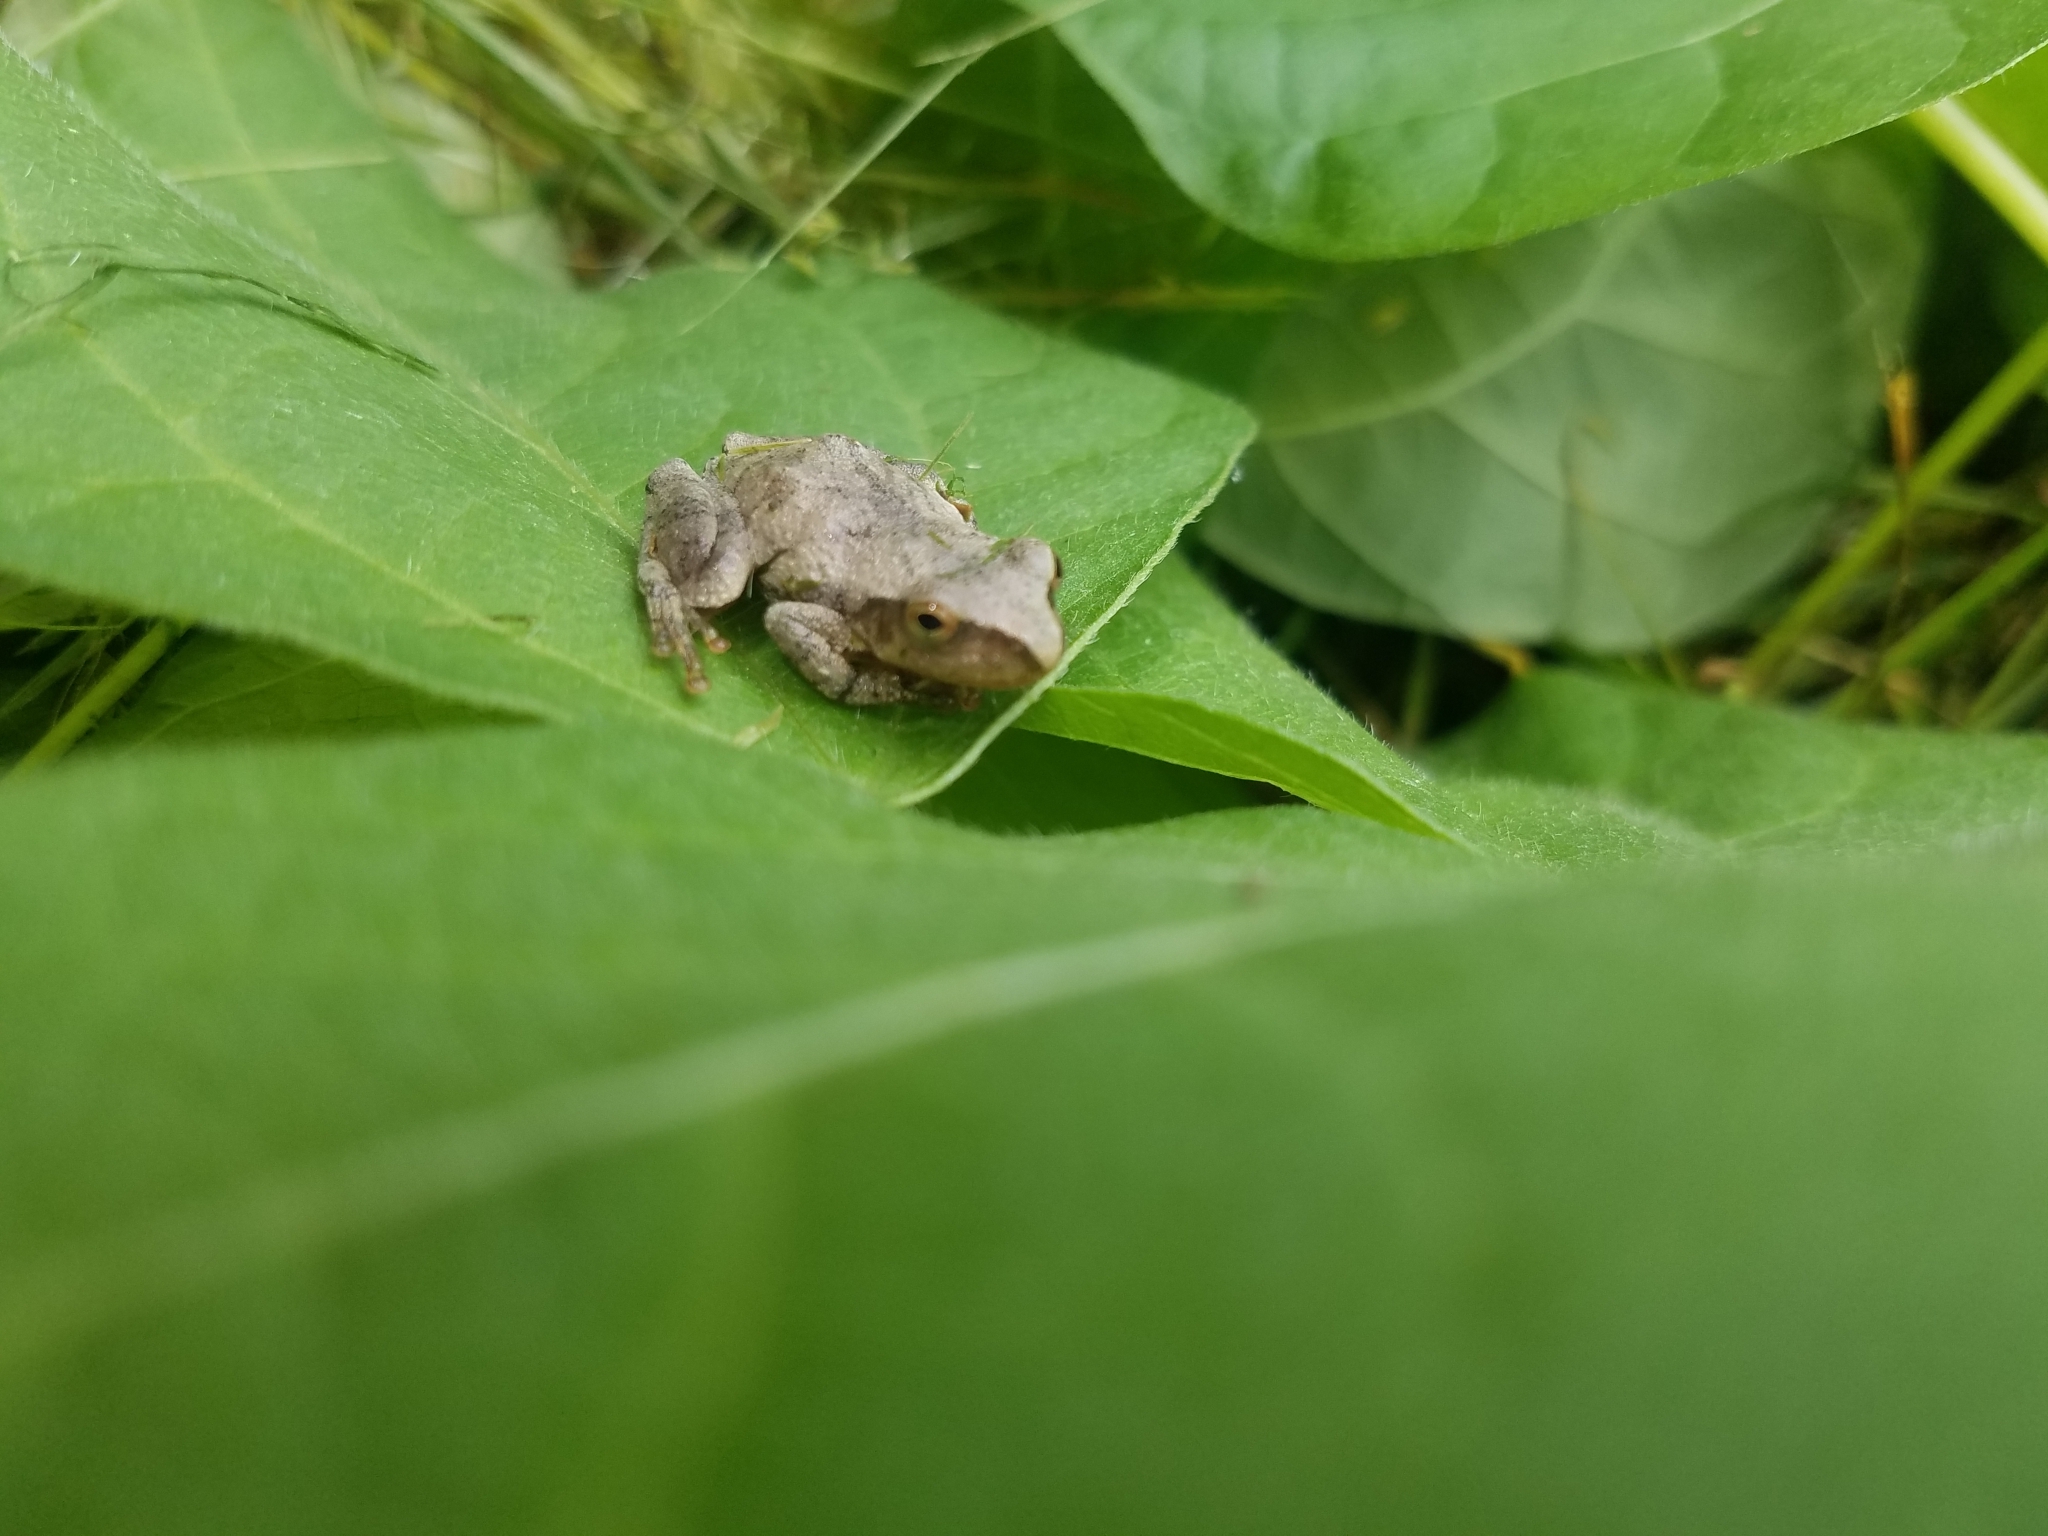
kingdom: Animalia
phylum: Chordata
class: Amphibia
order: Anura
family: Hylidae
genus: Pseudacris
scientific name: Pseudacris crucifer
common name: Spring peeper
